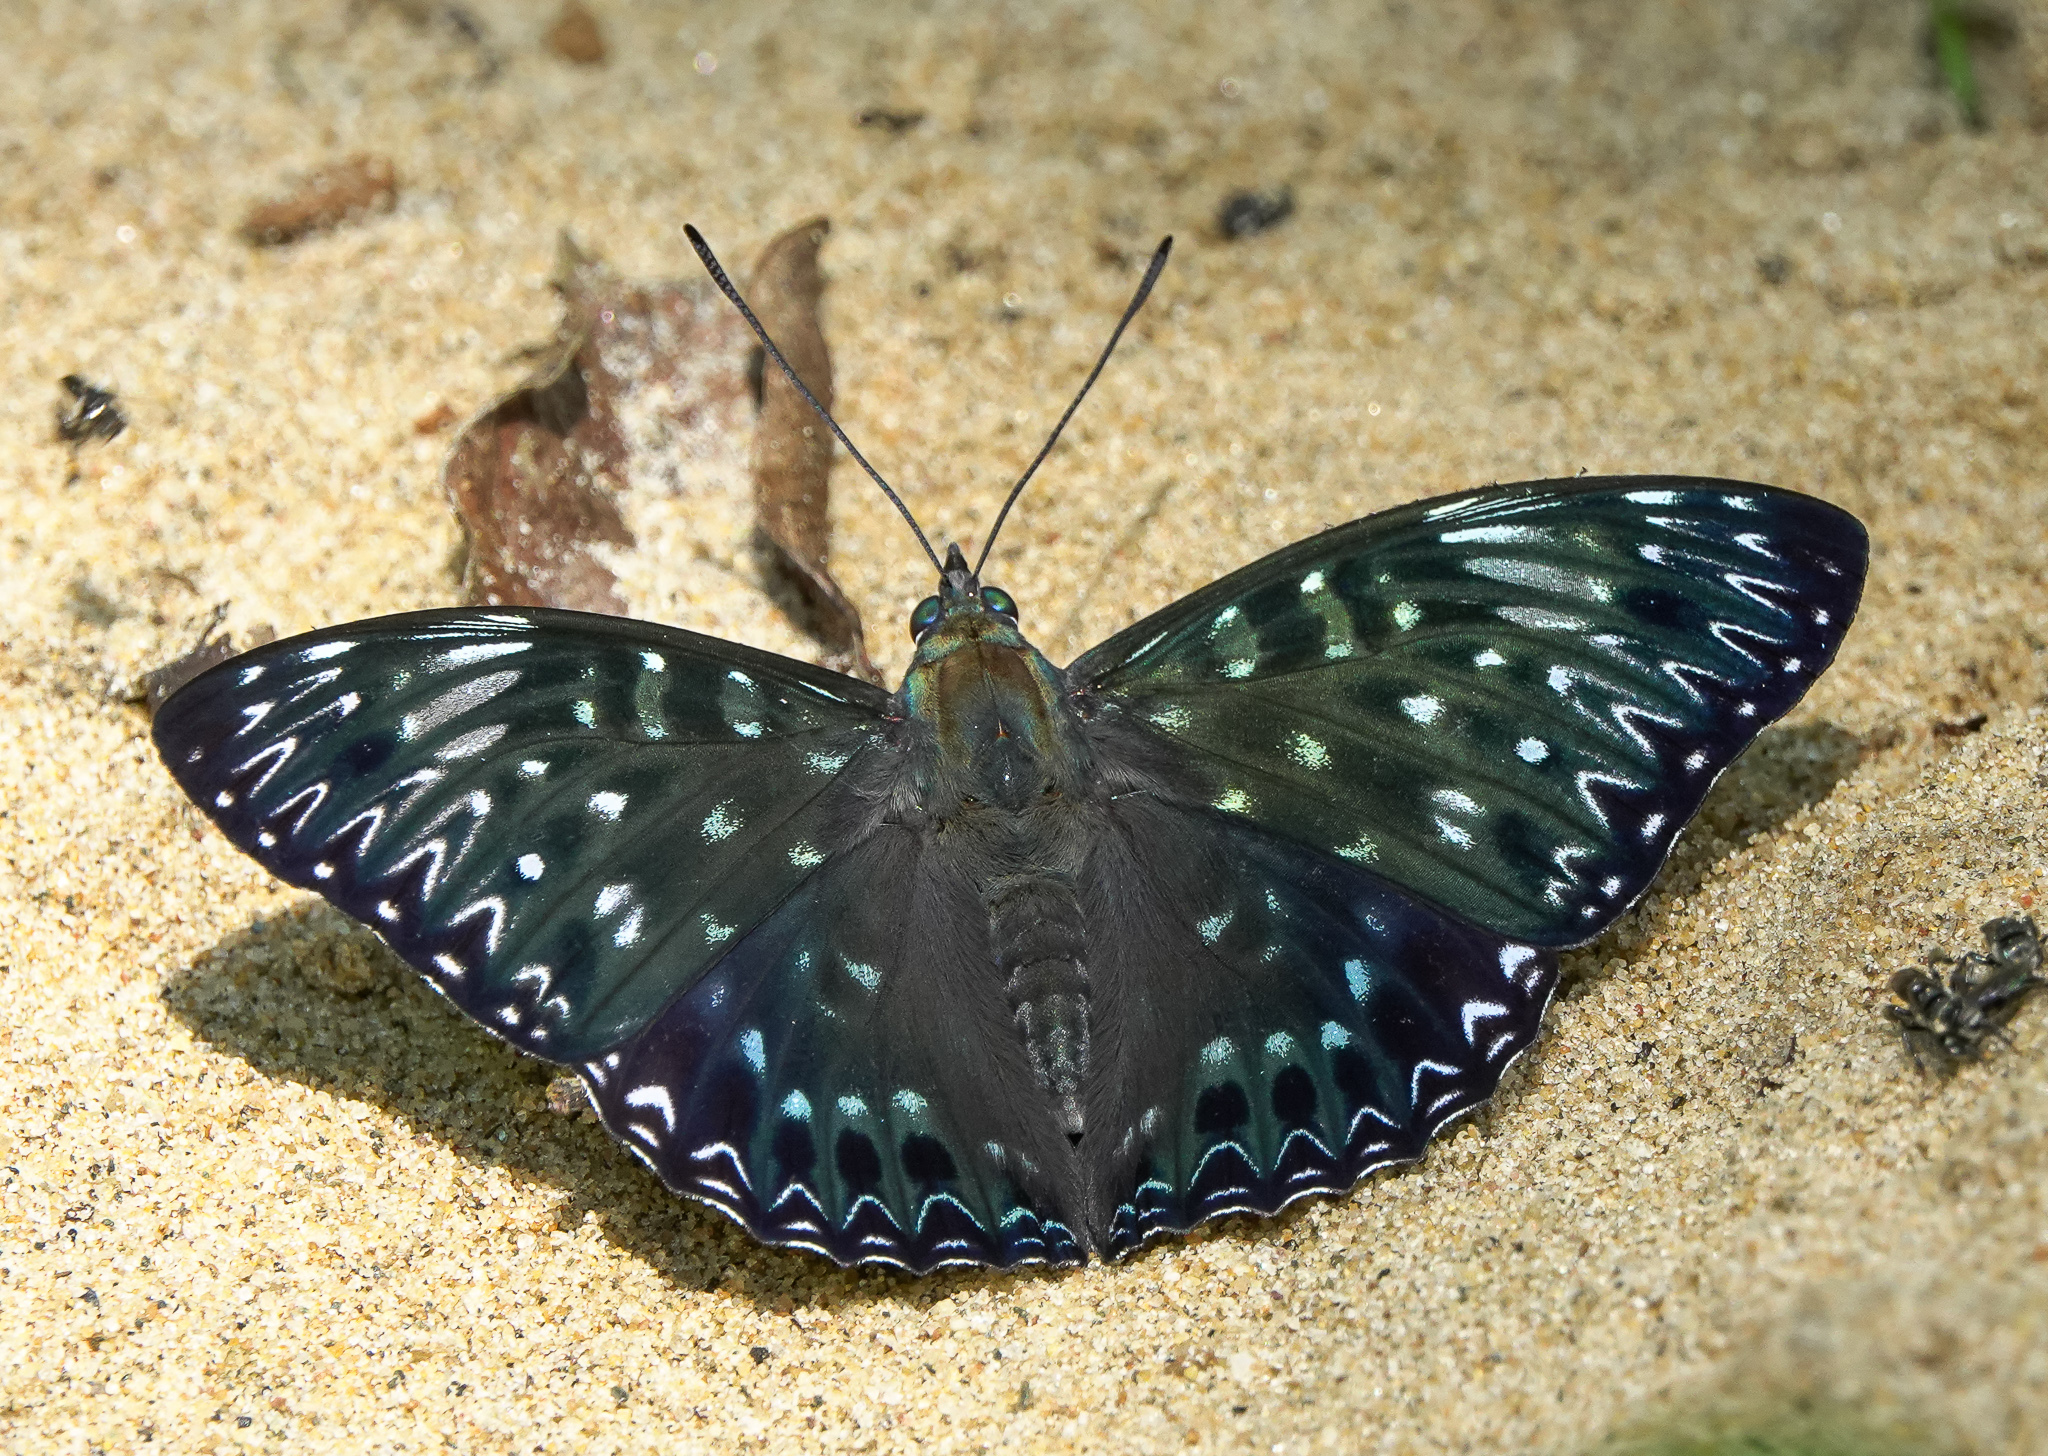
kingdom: Animalia
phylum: Arthropoda
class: Insecta
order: Lepidoptera
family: Nymphalidae
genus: Dichorragia
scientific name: Dichorragia nesimachus
